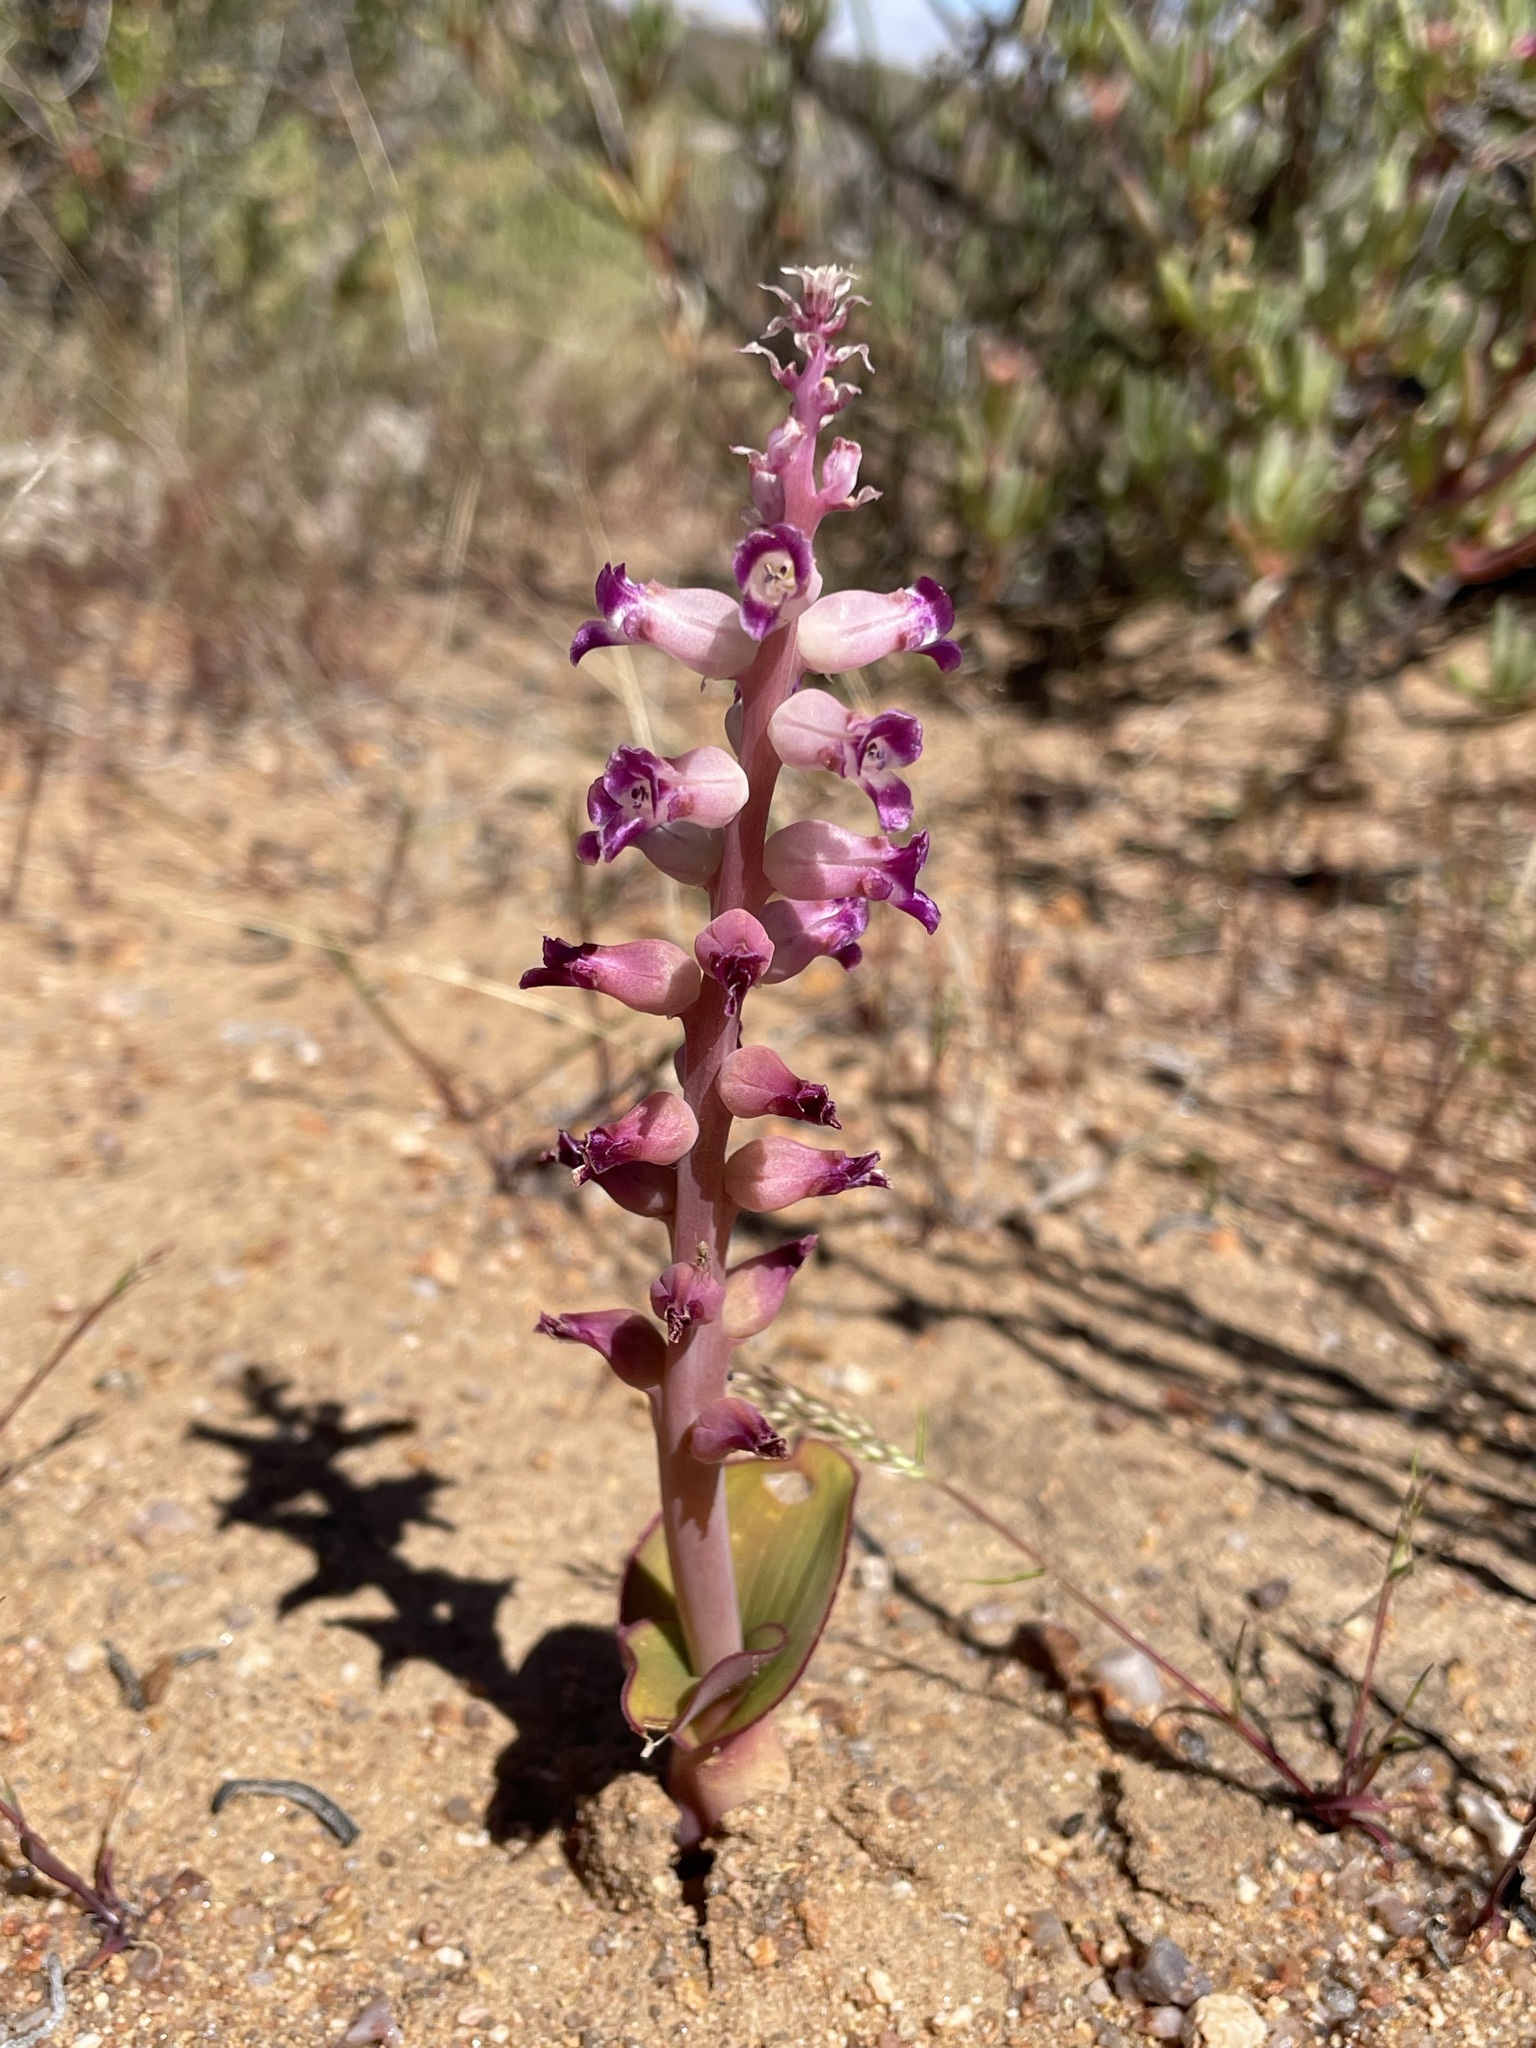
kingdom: Plantae
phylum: Tracheophyta
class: Liliopsida
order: Asparagales
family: Asparagaceae
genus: Lachenalia
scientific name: Lachenalia carnosa
